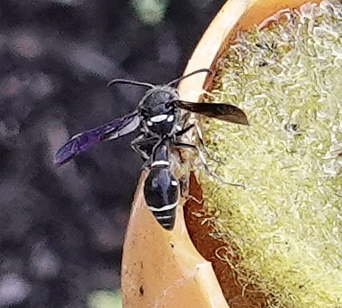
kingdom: Animalia
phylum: Arthropoda
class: Insecta
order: Hymenoptera
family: Vespidae
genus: Eumenes
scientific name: Eumenes fraternus
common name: Fraternal potter wasp
